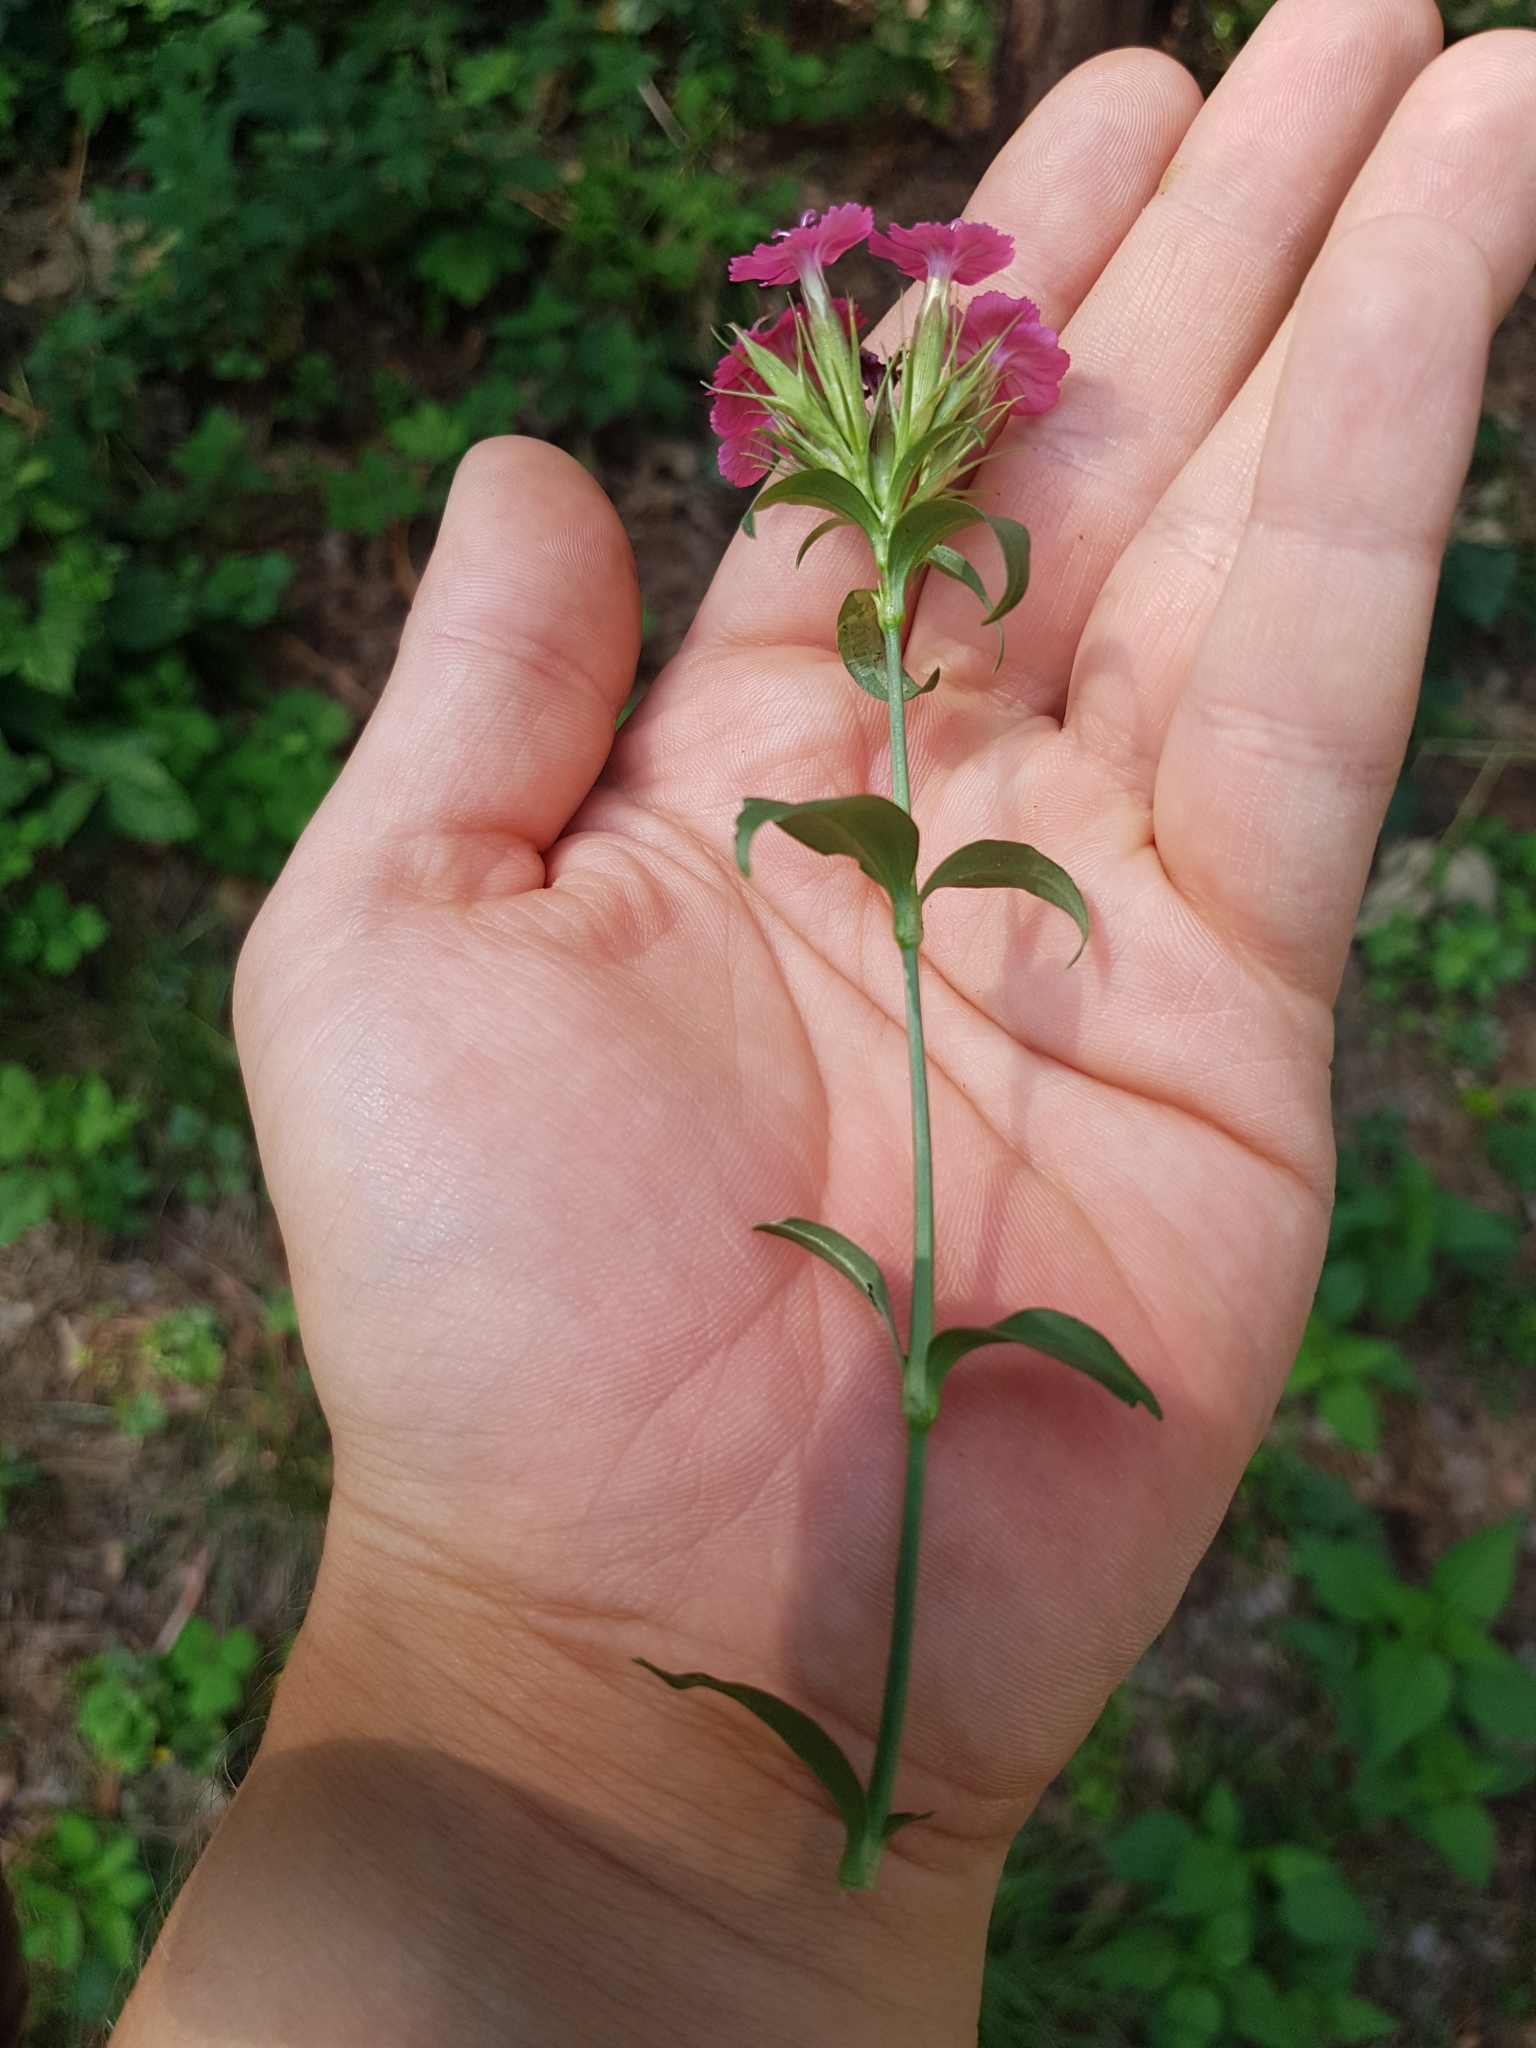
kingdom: Plantae
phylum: Tracheophyta
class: Magnoliopsida
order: Caryophyllales
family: Caryophyllaceae
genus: Dianthus
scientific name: Dianthus barbatus
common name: Sweet-william
